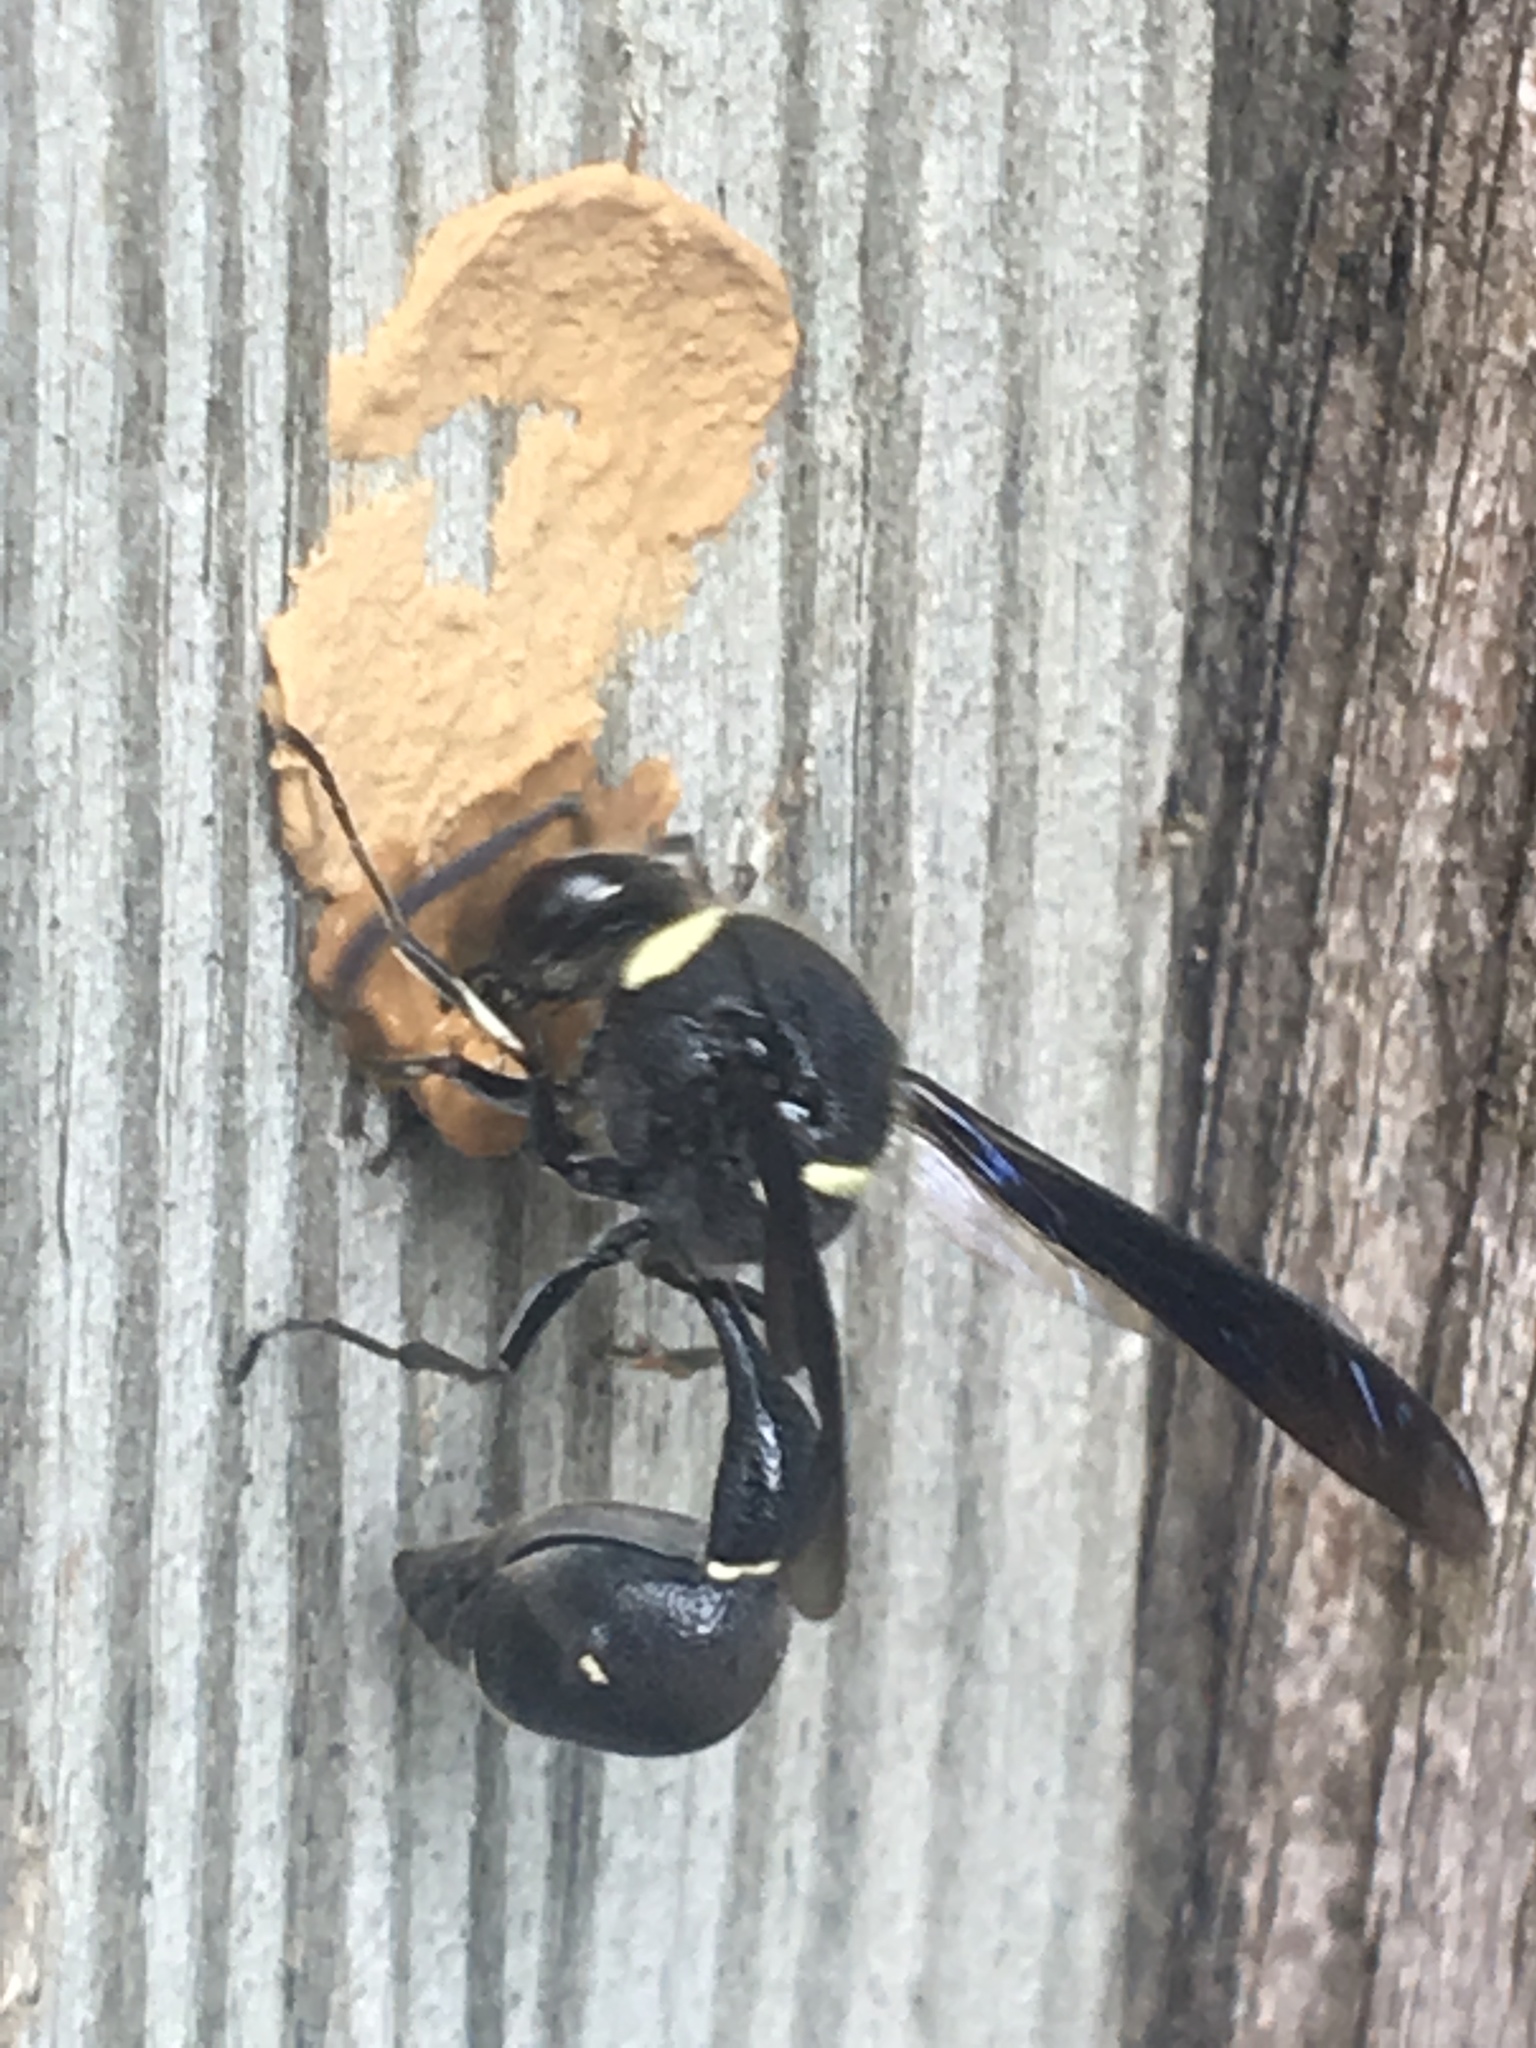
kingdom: Animalia
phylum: Arthropoda
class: Insecta
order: Hymenoptera
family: Vespidae
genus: Eumenes
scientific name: Eumenes fraternus
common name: Fraternal potter wasp
